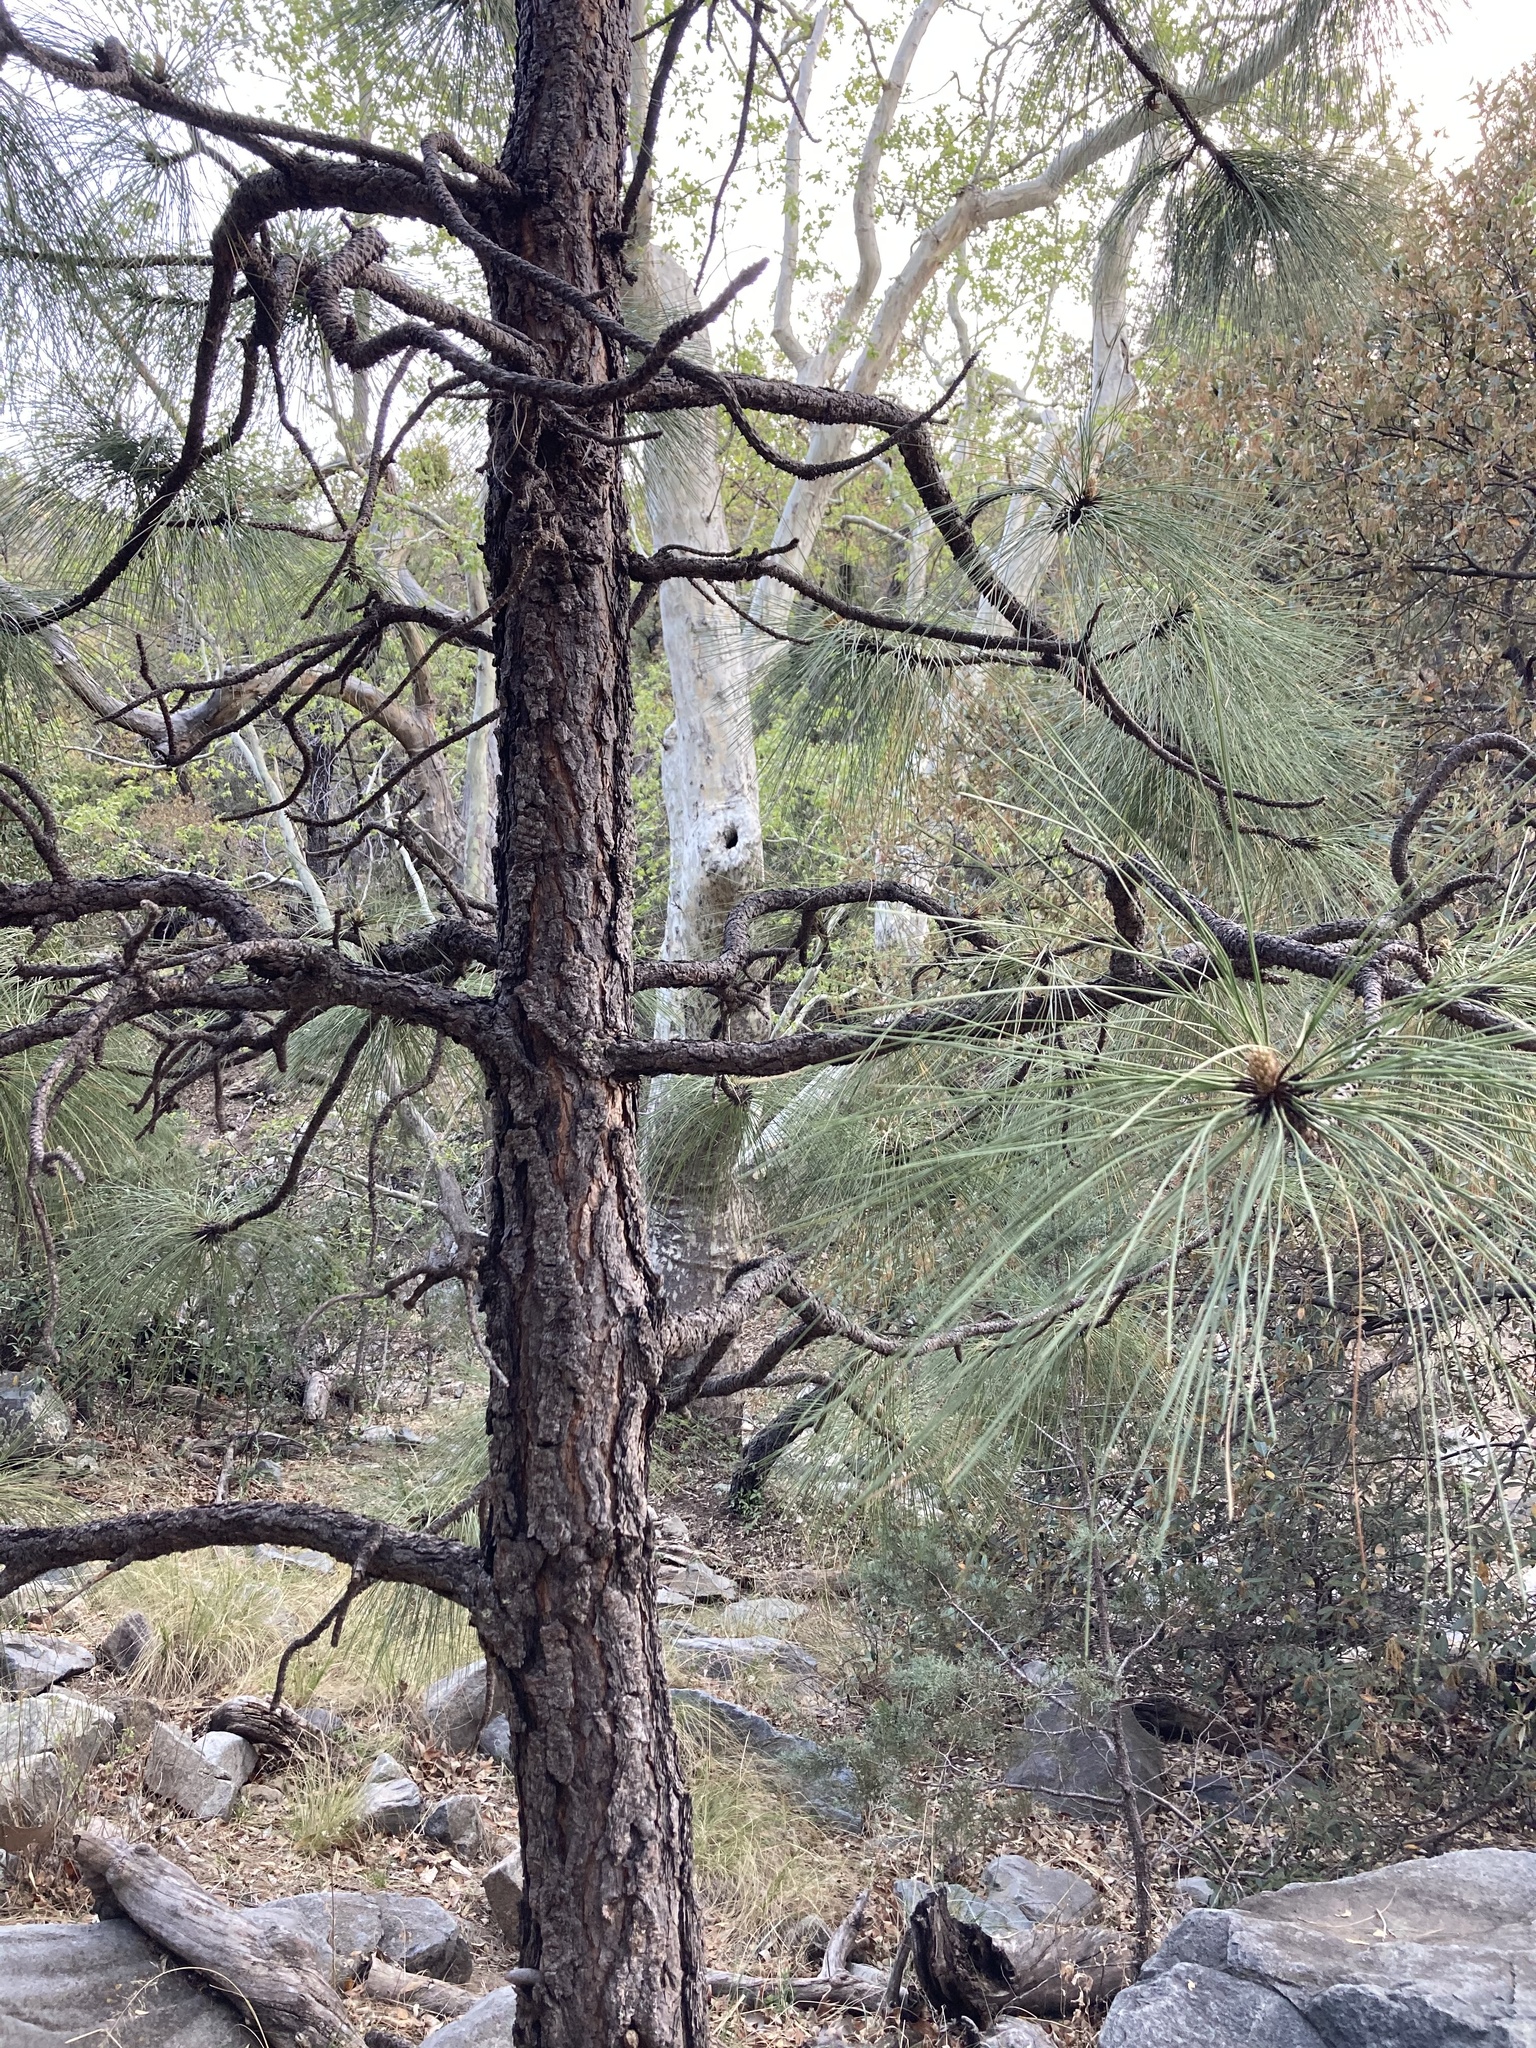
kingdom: Plantae
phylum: Tracheophyta
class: Pinopsida
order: Pinales
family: Pinaceae
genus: Pinus
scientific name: Pinus engelmannii
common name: Apache pine
